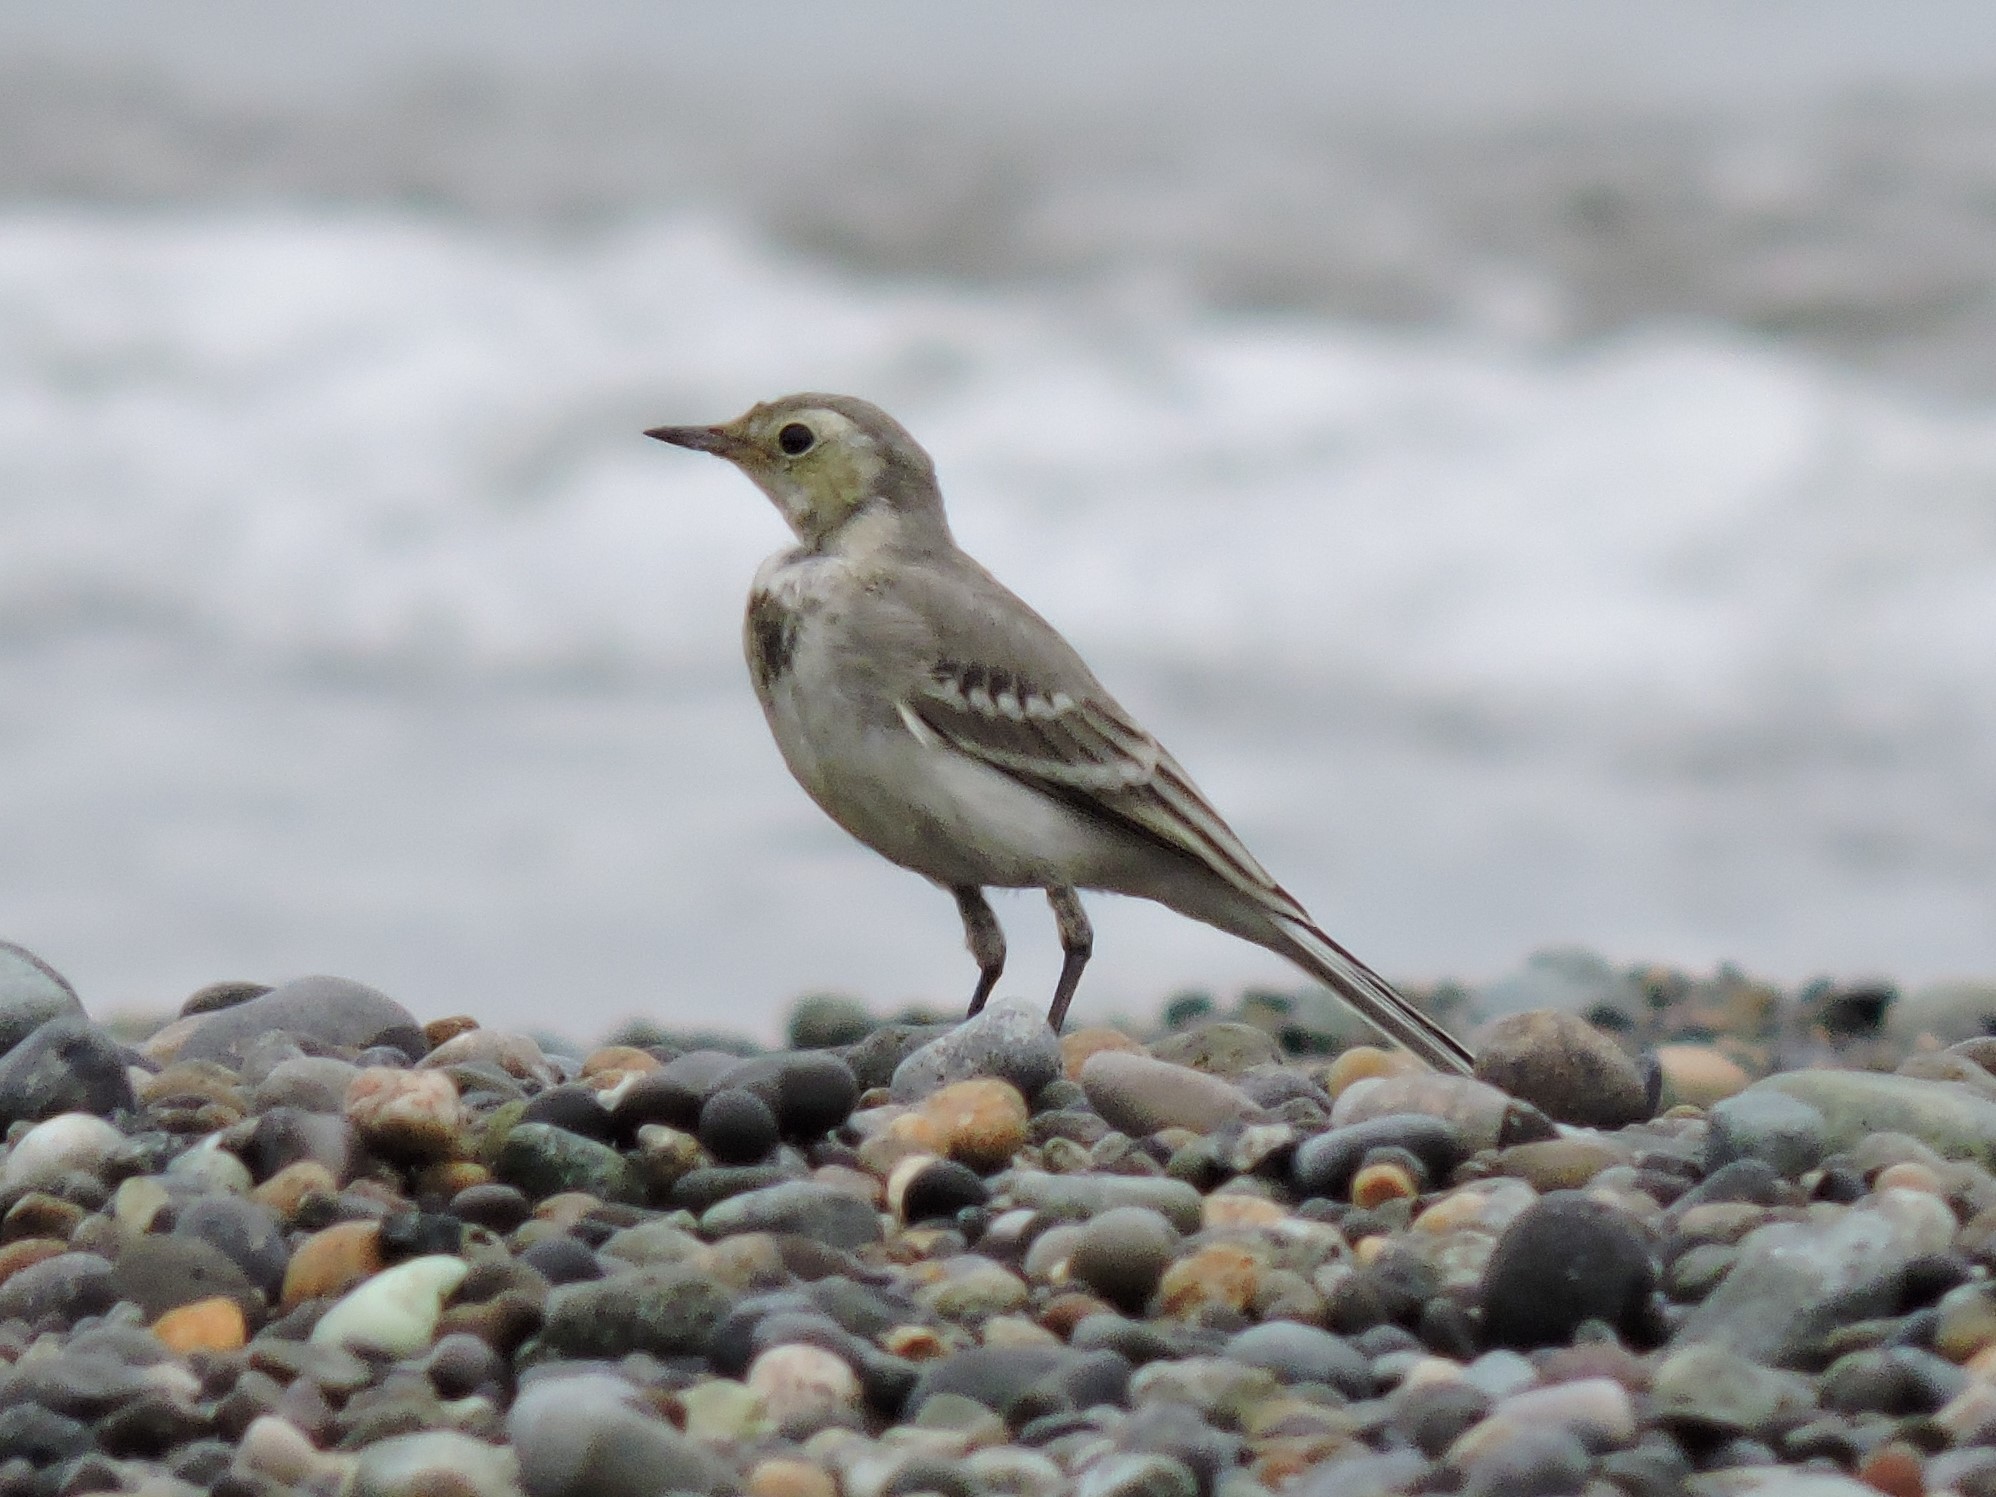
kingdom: Animalia
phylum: Chordata
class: Aves
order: Passeriformes
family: Motacillidae
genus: Motacilla
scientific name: Motacilla alba
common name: White wagtail
